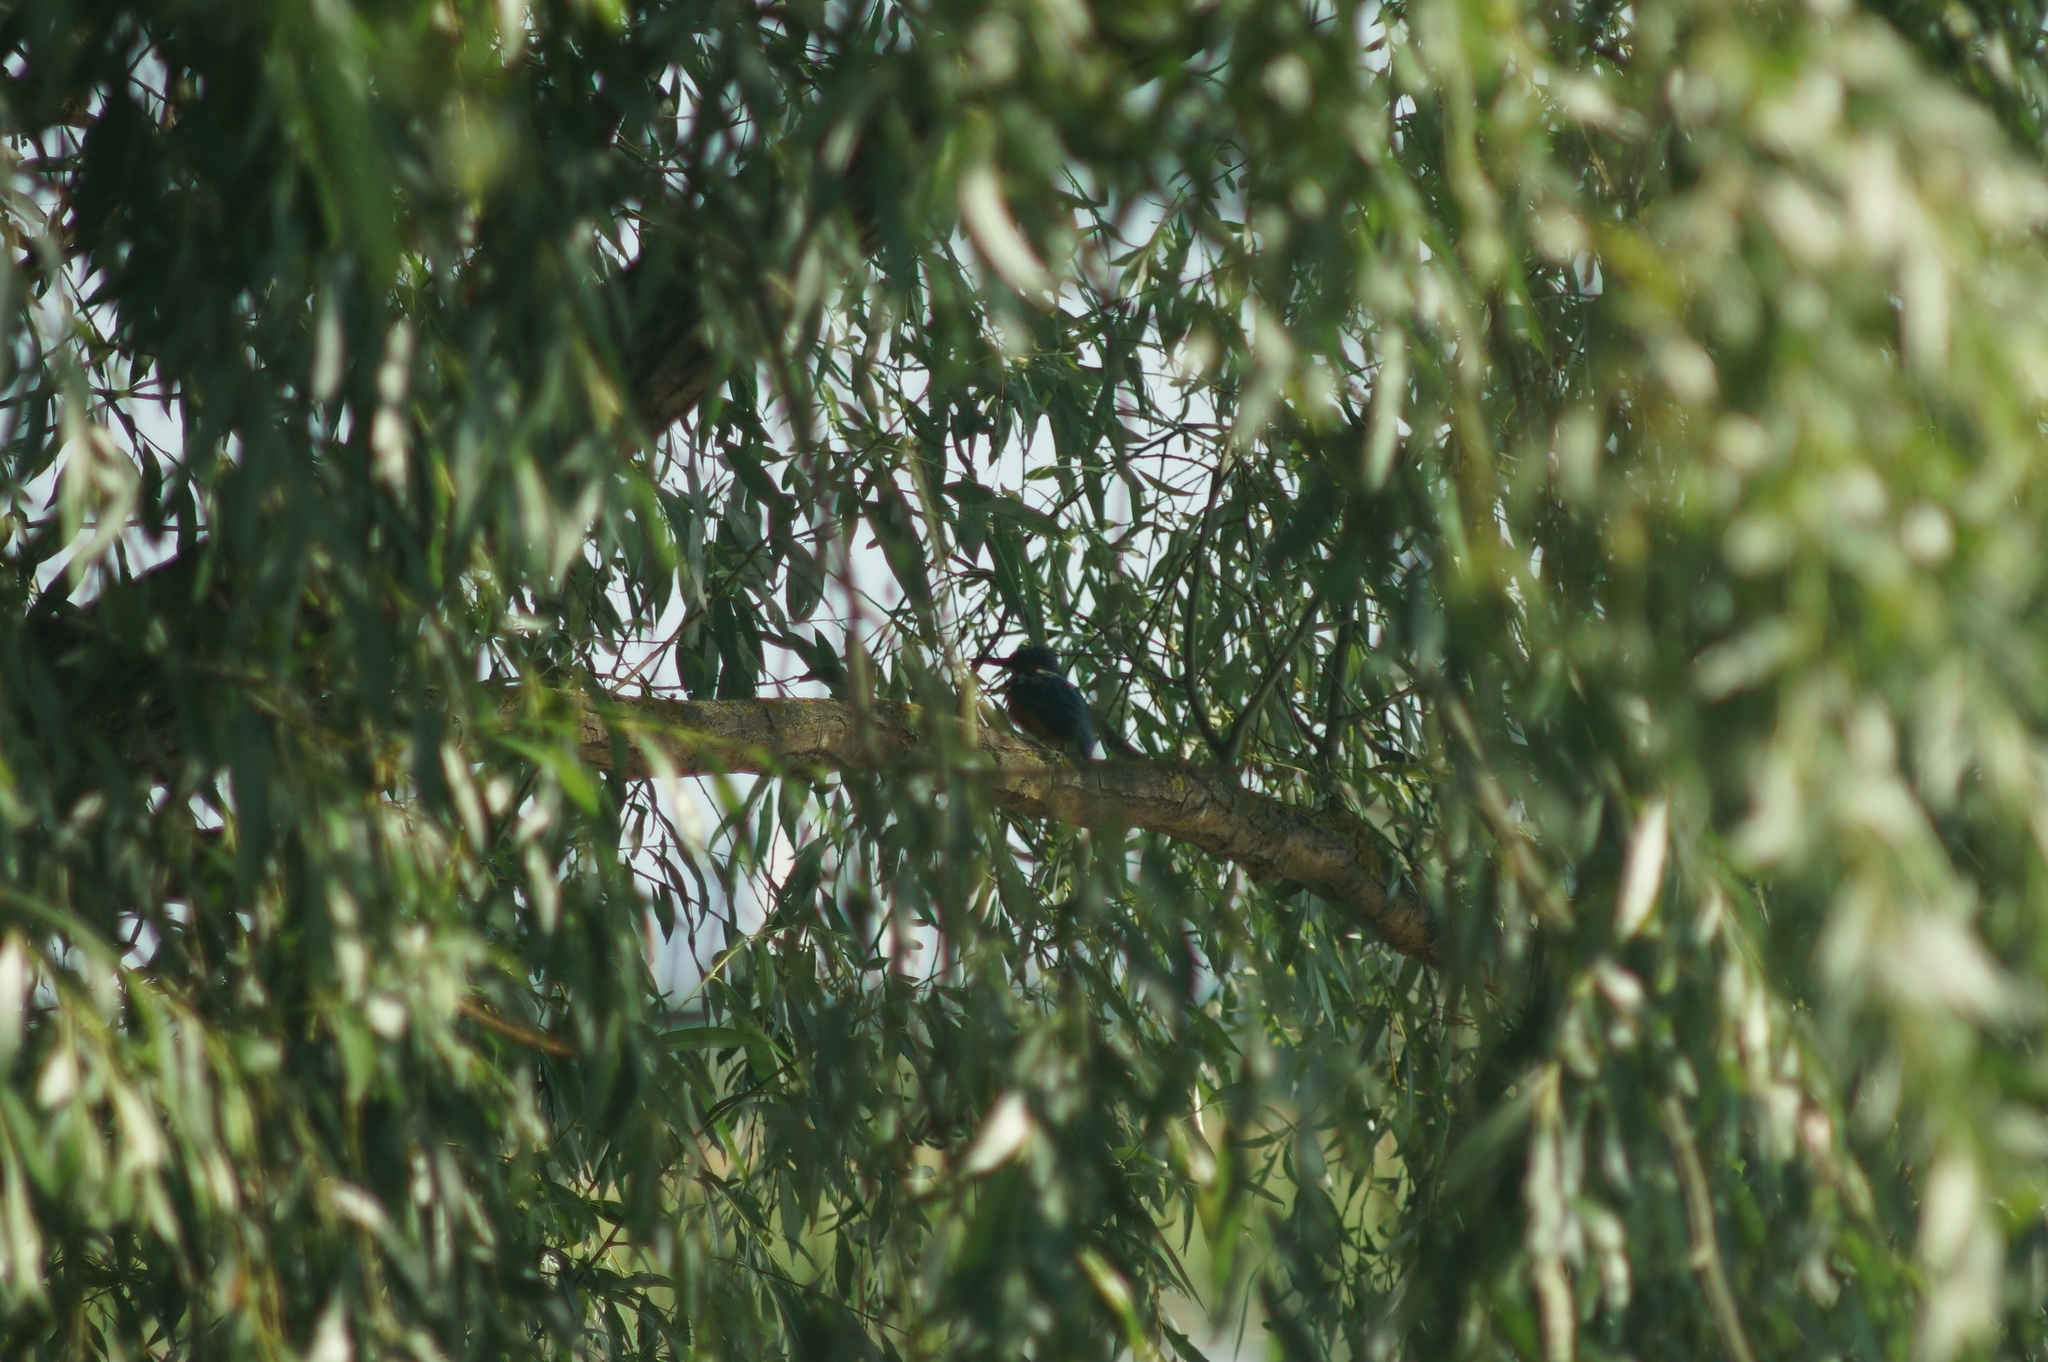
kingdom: Animalia
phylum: Chordata
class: Aves
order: Coraciiformes
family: Alcedinidae
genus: Alcedo
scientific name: Alcedo atthis
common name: Common kingfisher
